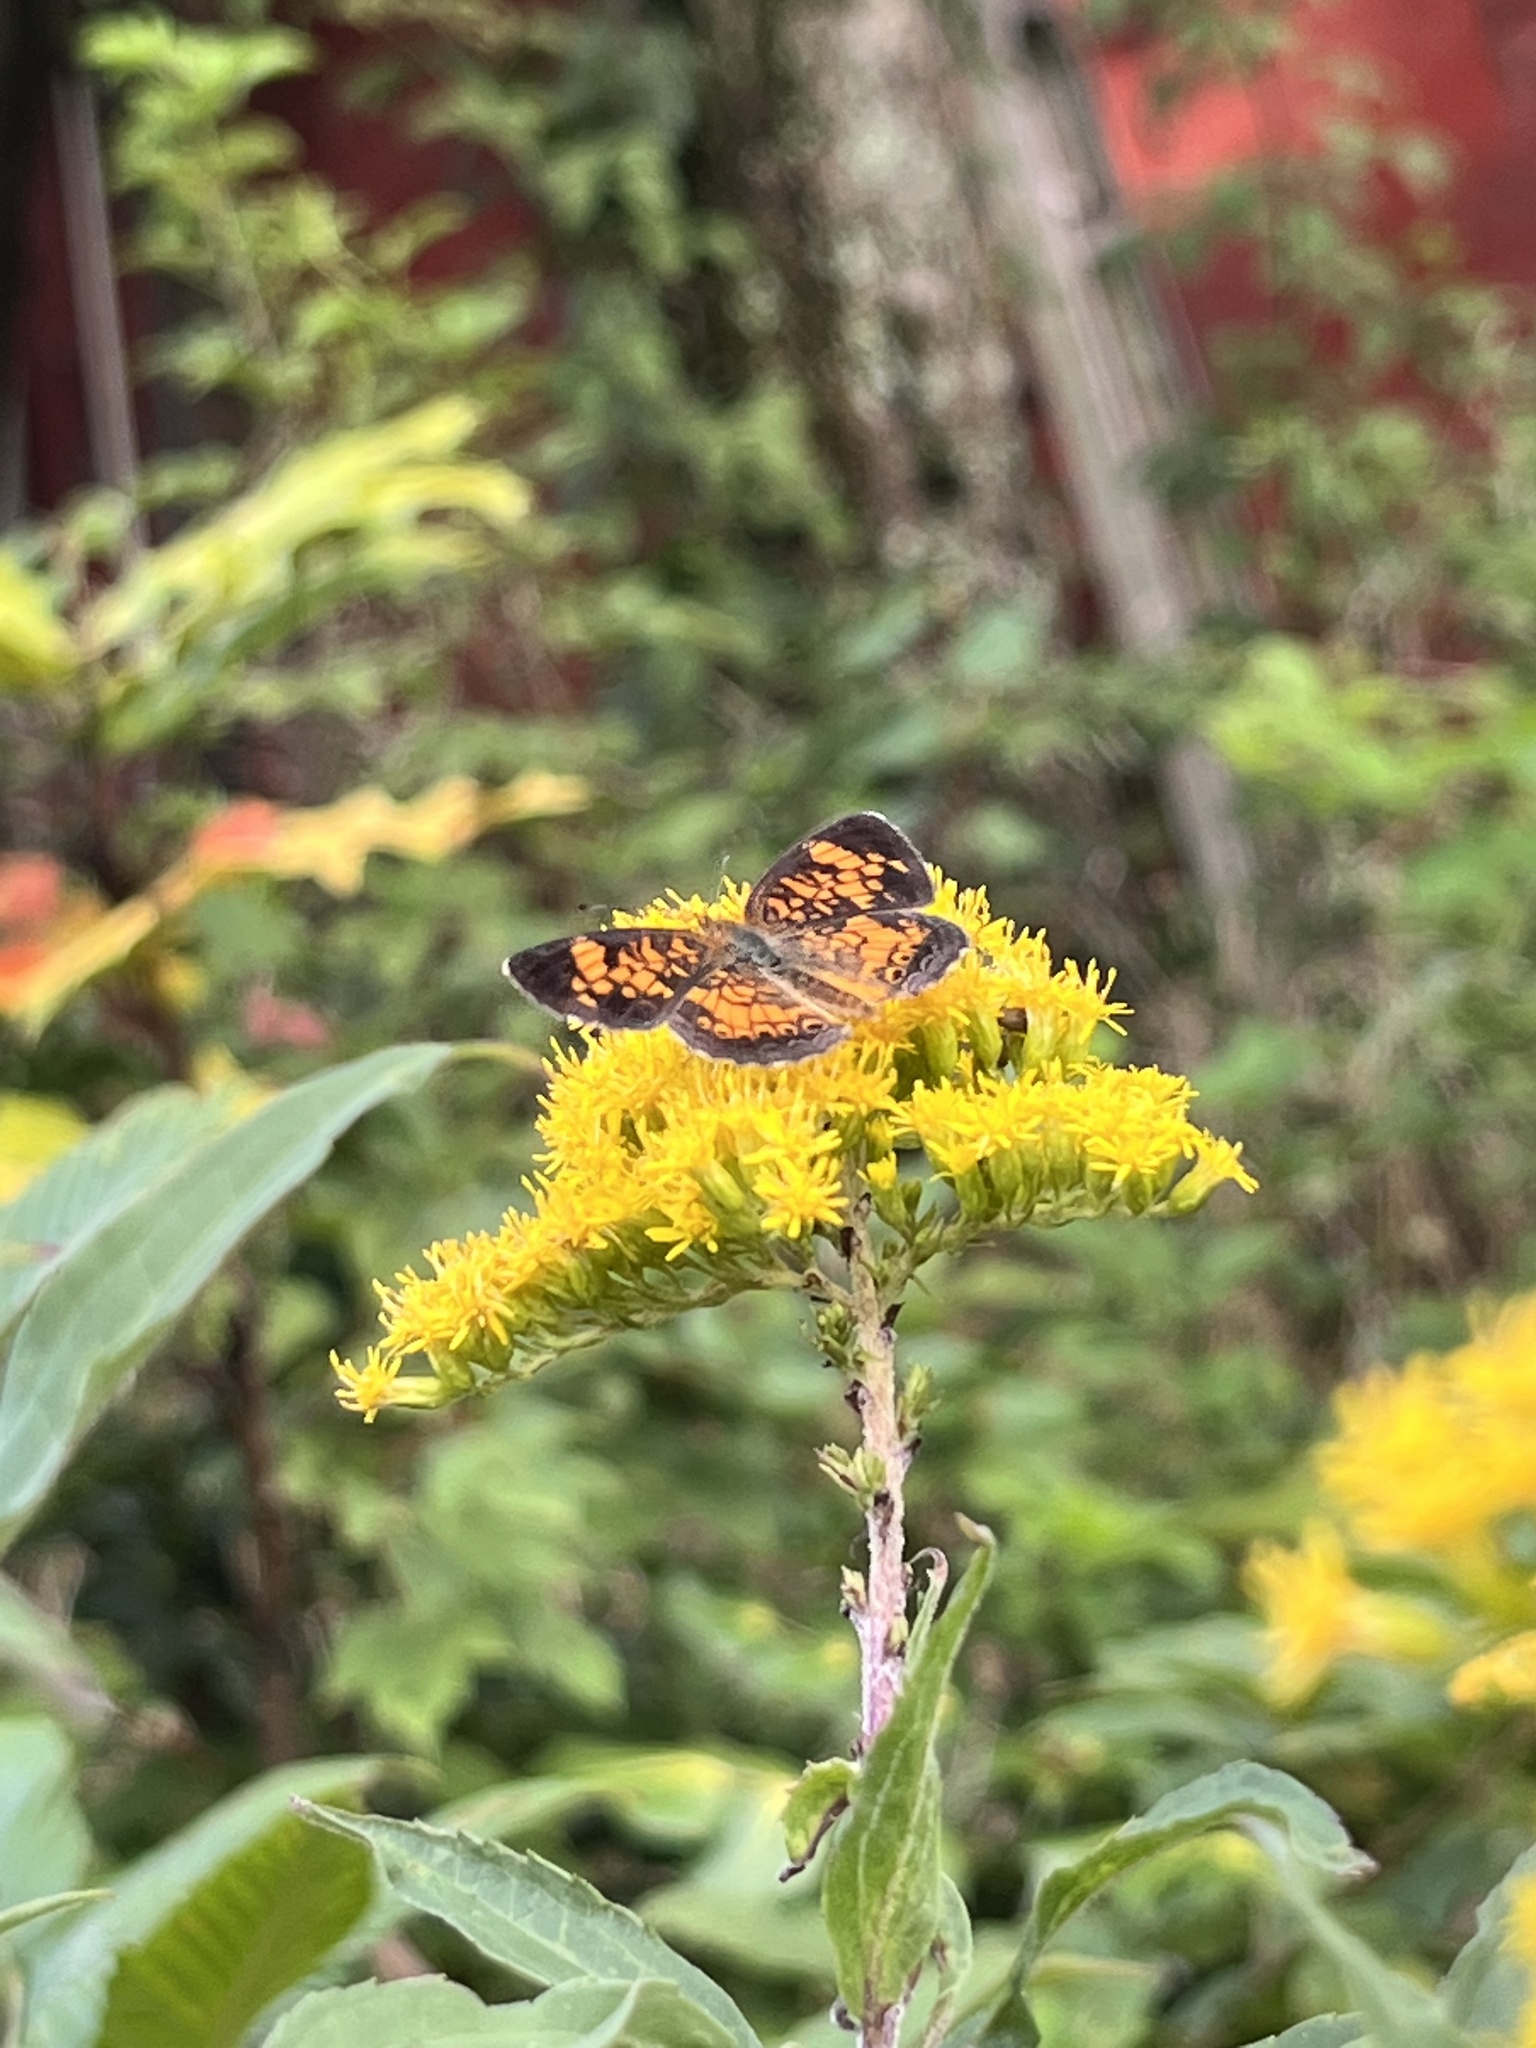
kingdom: Animalia
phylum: Arthropoda
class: Insecta
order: Lepidoptera
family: Nymphalidae
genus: Phyciodes
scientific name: Phyciodes tharos
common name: Pearl crescent
